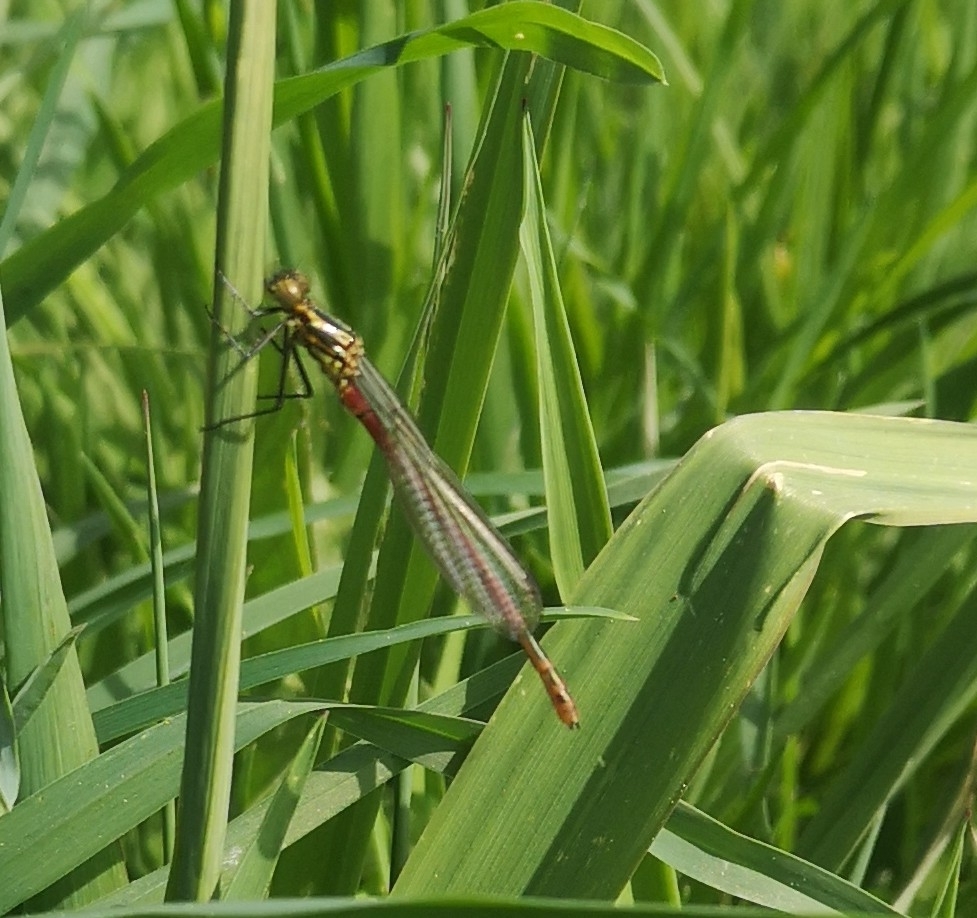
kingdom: Animalia
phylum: Arthropoda
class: Insecta
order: Odonata
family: Coenagrionidae
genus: Pyrrhosoma
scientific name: Pyrrhosoma nymphula
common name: Large red damsel
